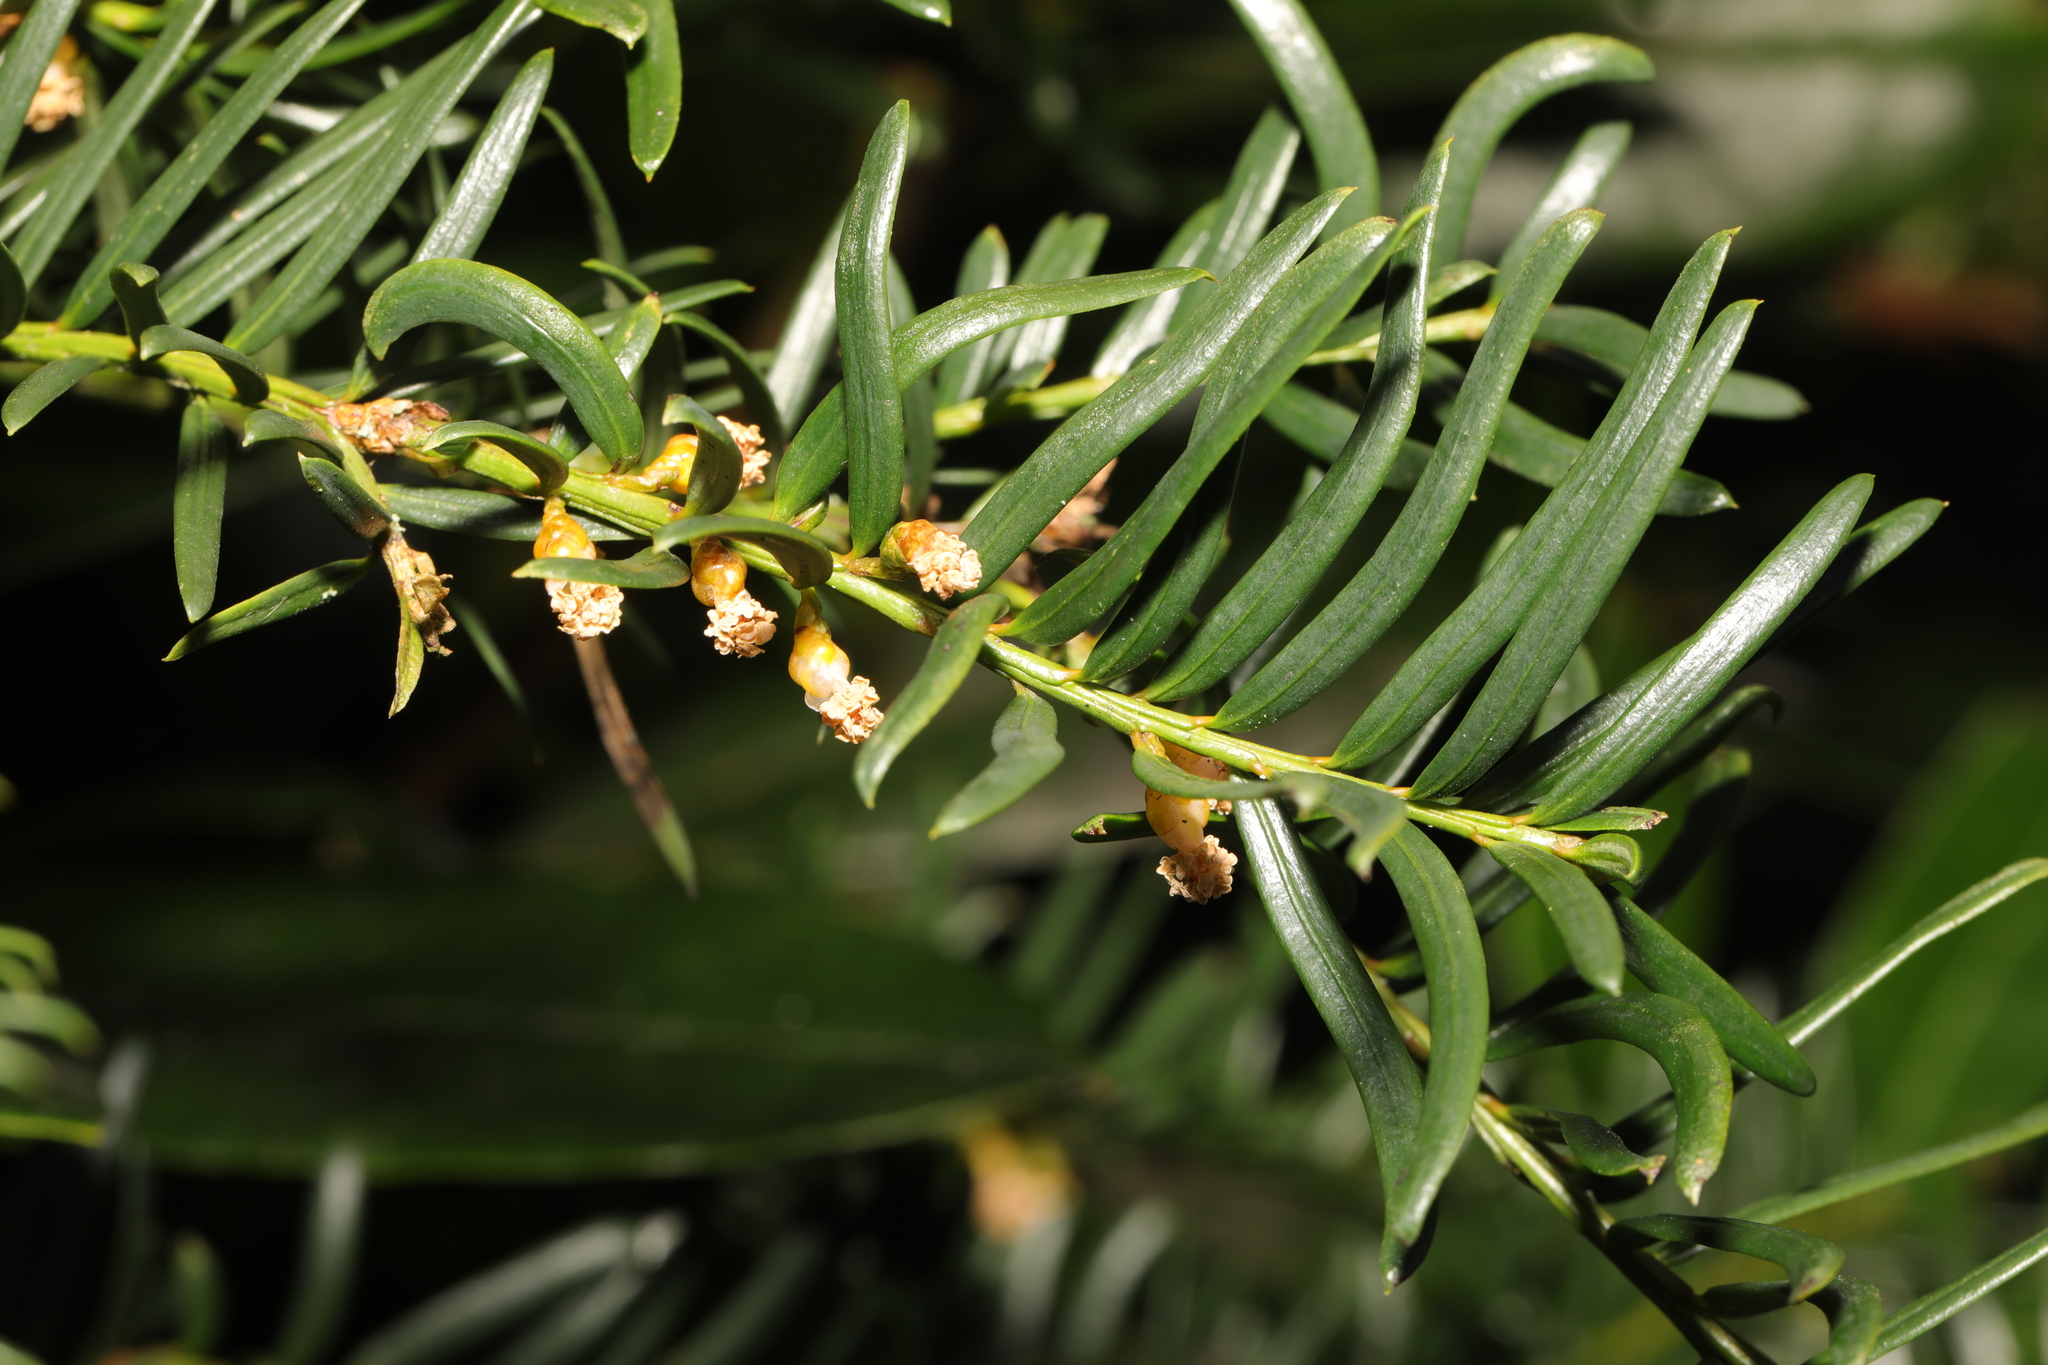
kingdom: Plantae
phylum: Tracheophyta
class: Pinopsida
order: Pinales
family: Taxaceae
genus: Taxus
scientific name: Taxus baccata
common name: Yew
